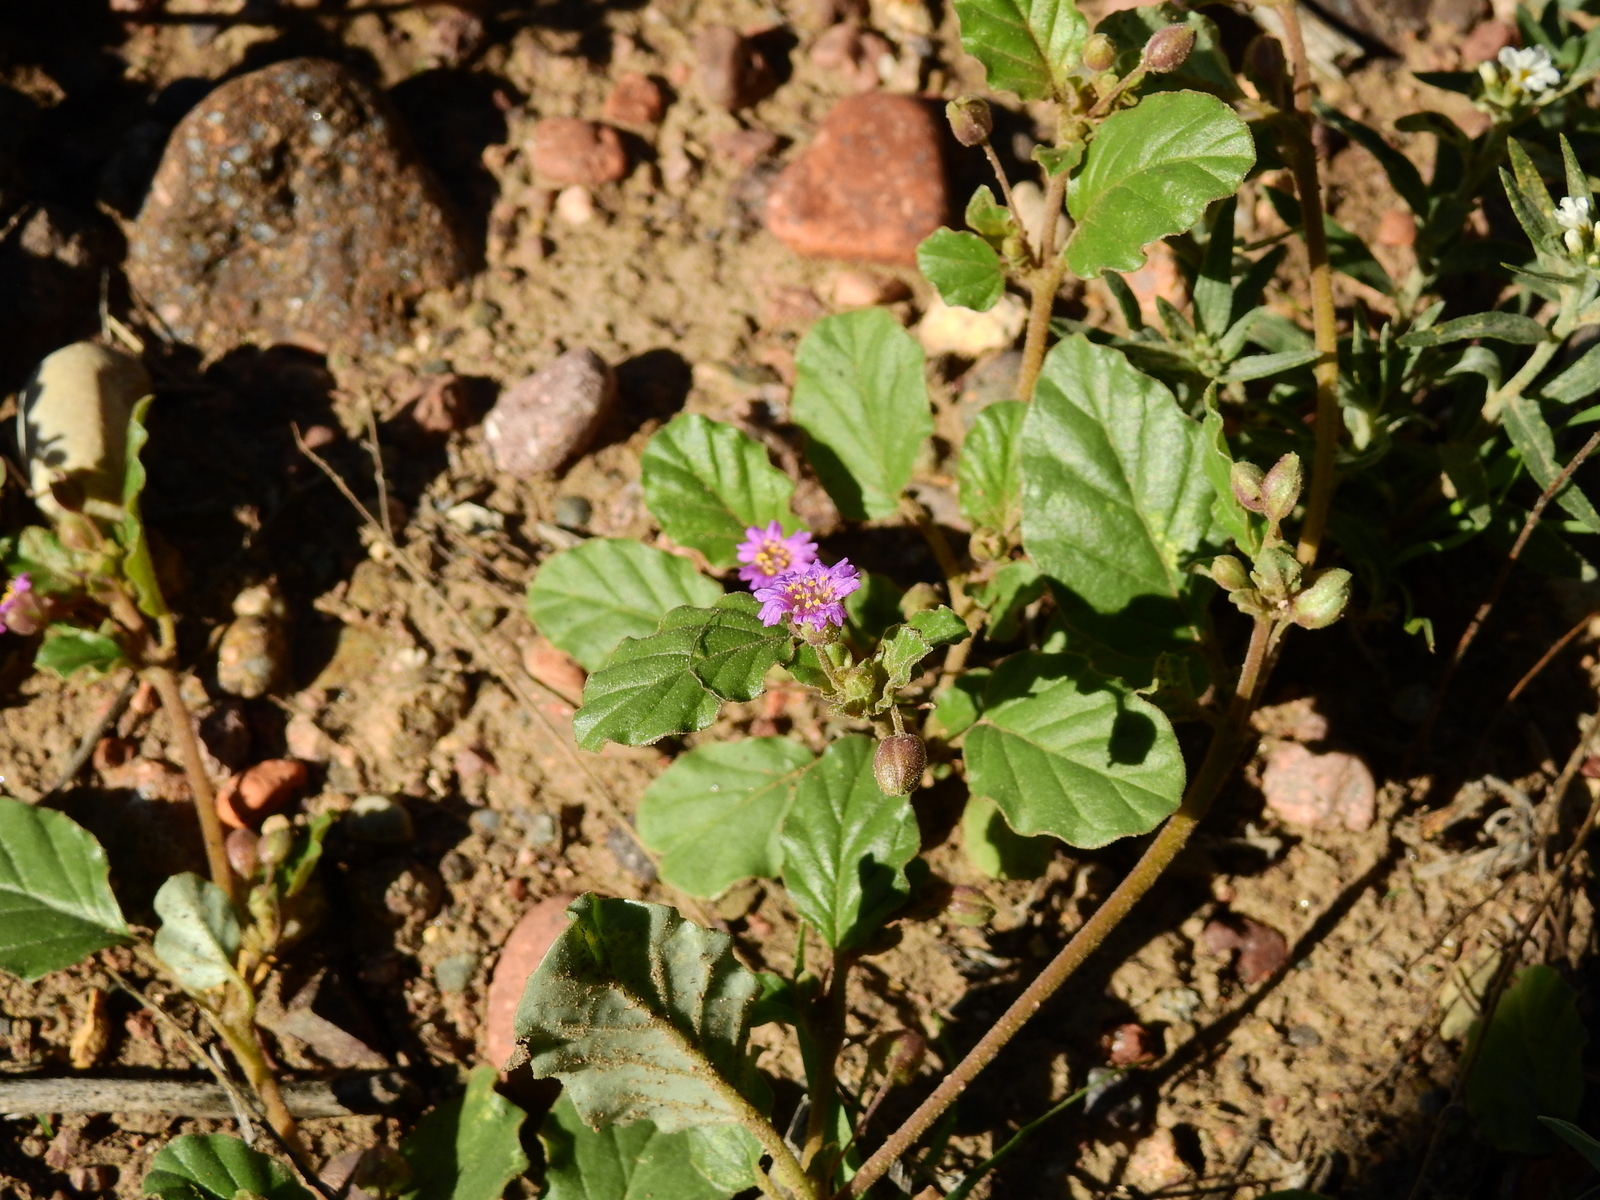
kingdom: Plantae
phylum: Tracheophyta
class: Magnoliopsida
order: Caryophyllales
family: Nyctaginaceae
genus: Allionia
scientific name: Allionia incarnata
